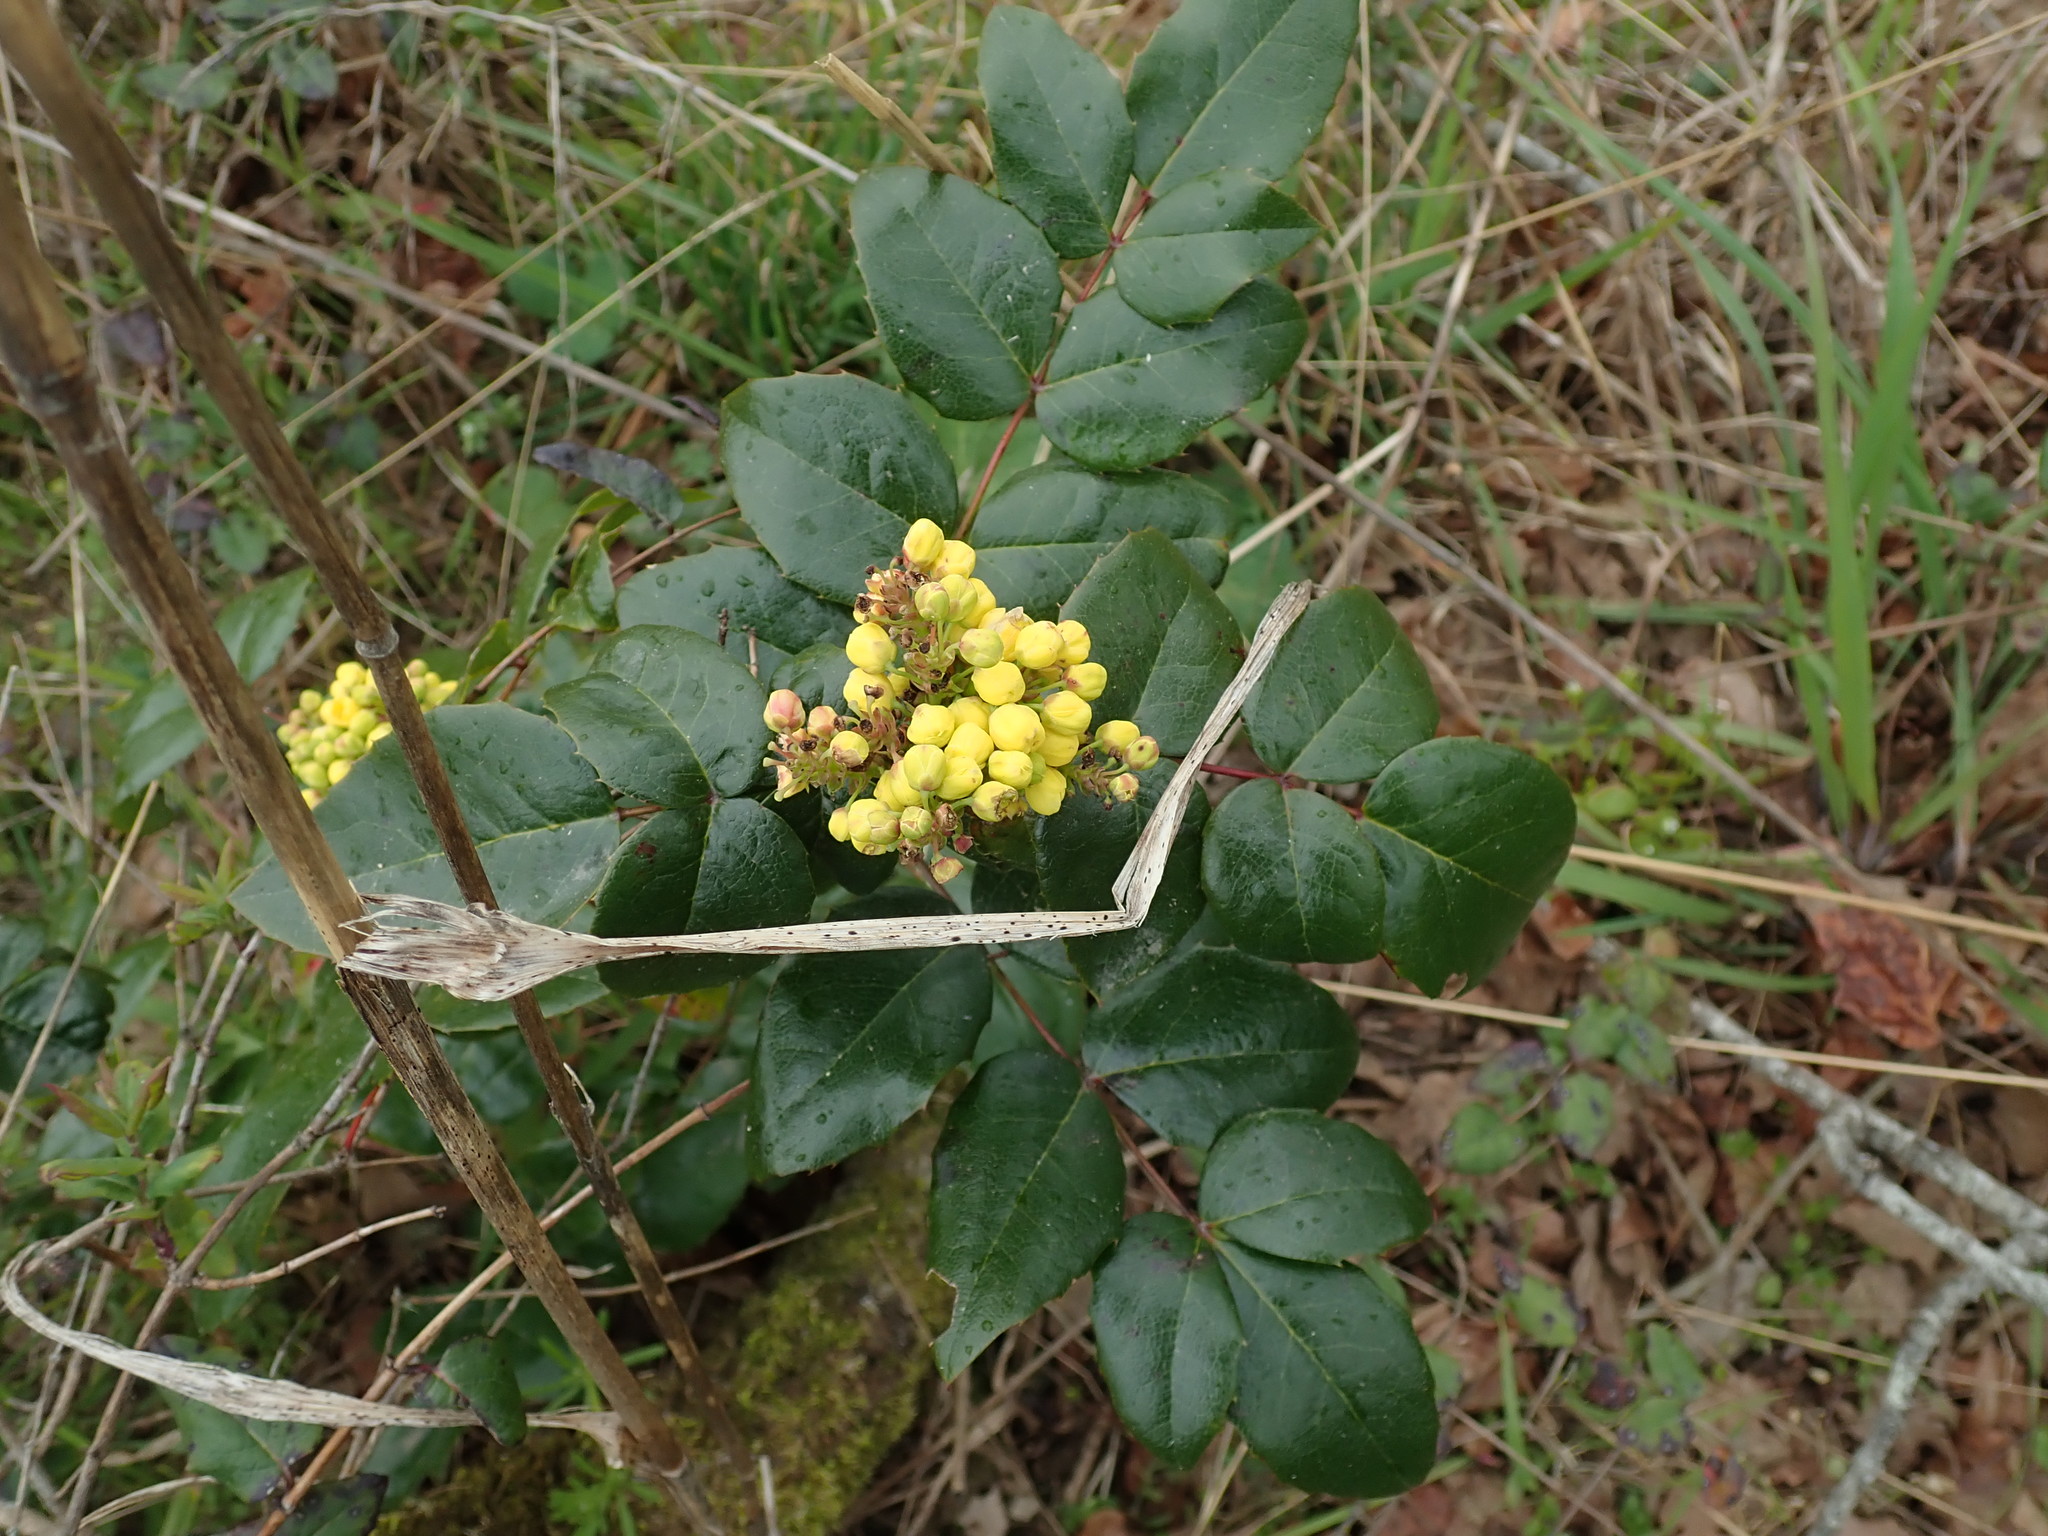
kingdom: Plantae
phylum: Tracheophyta
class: Magnoliopsida
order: Ranunculales
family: Berberidaceae
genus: Mahonia
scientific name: Mahonia aquifolium
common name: Oregon-grape
